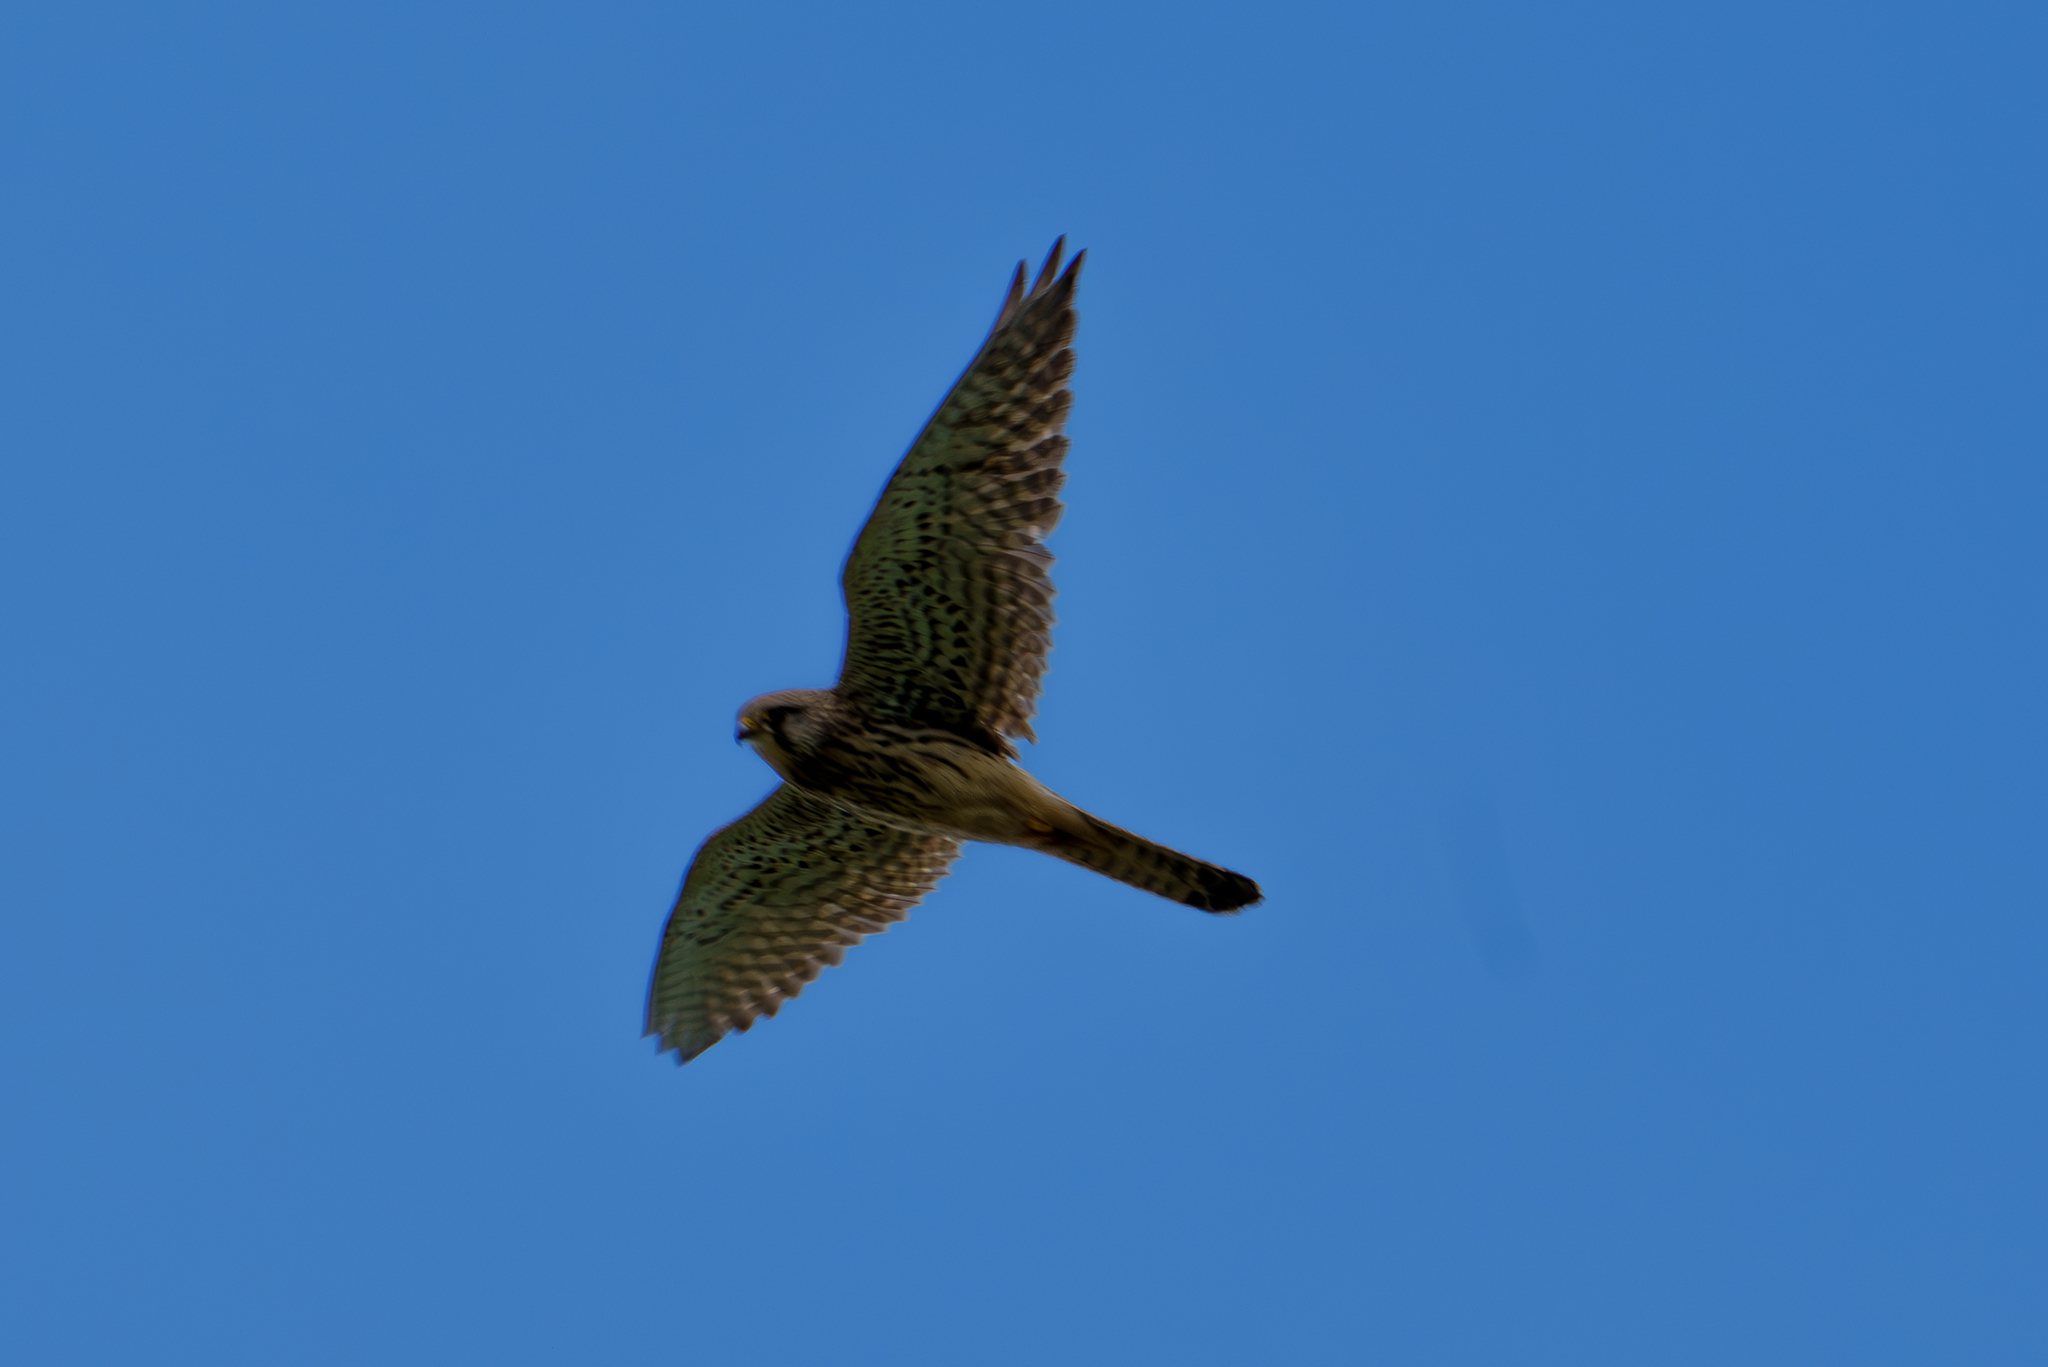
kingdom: Animalia
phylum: Chordata
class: Aves
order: Falconiformes
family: Falconidae
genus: Falco
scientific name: Falco tinnunculus
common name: Common kestrel
